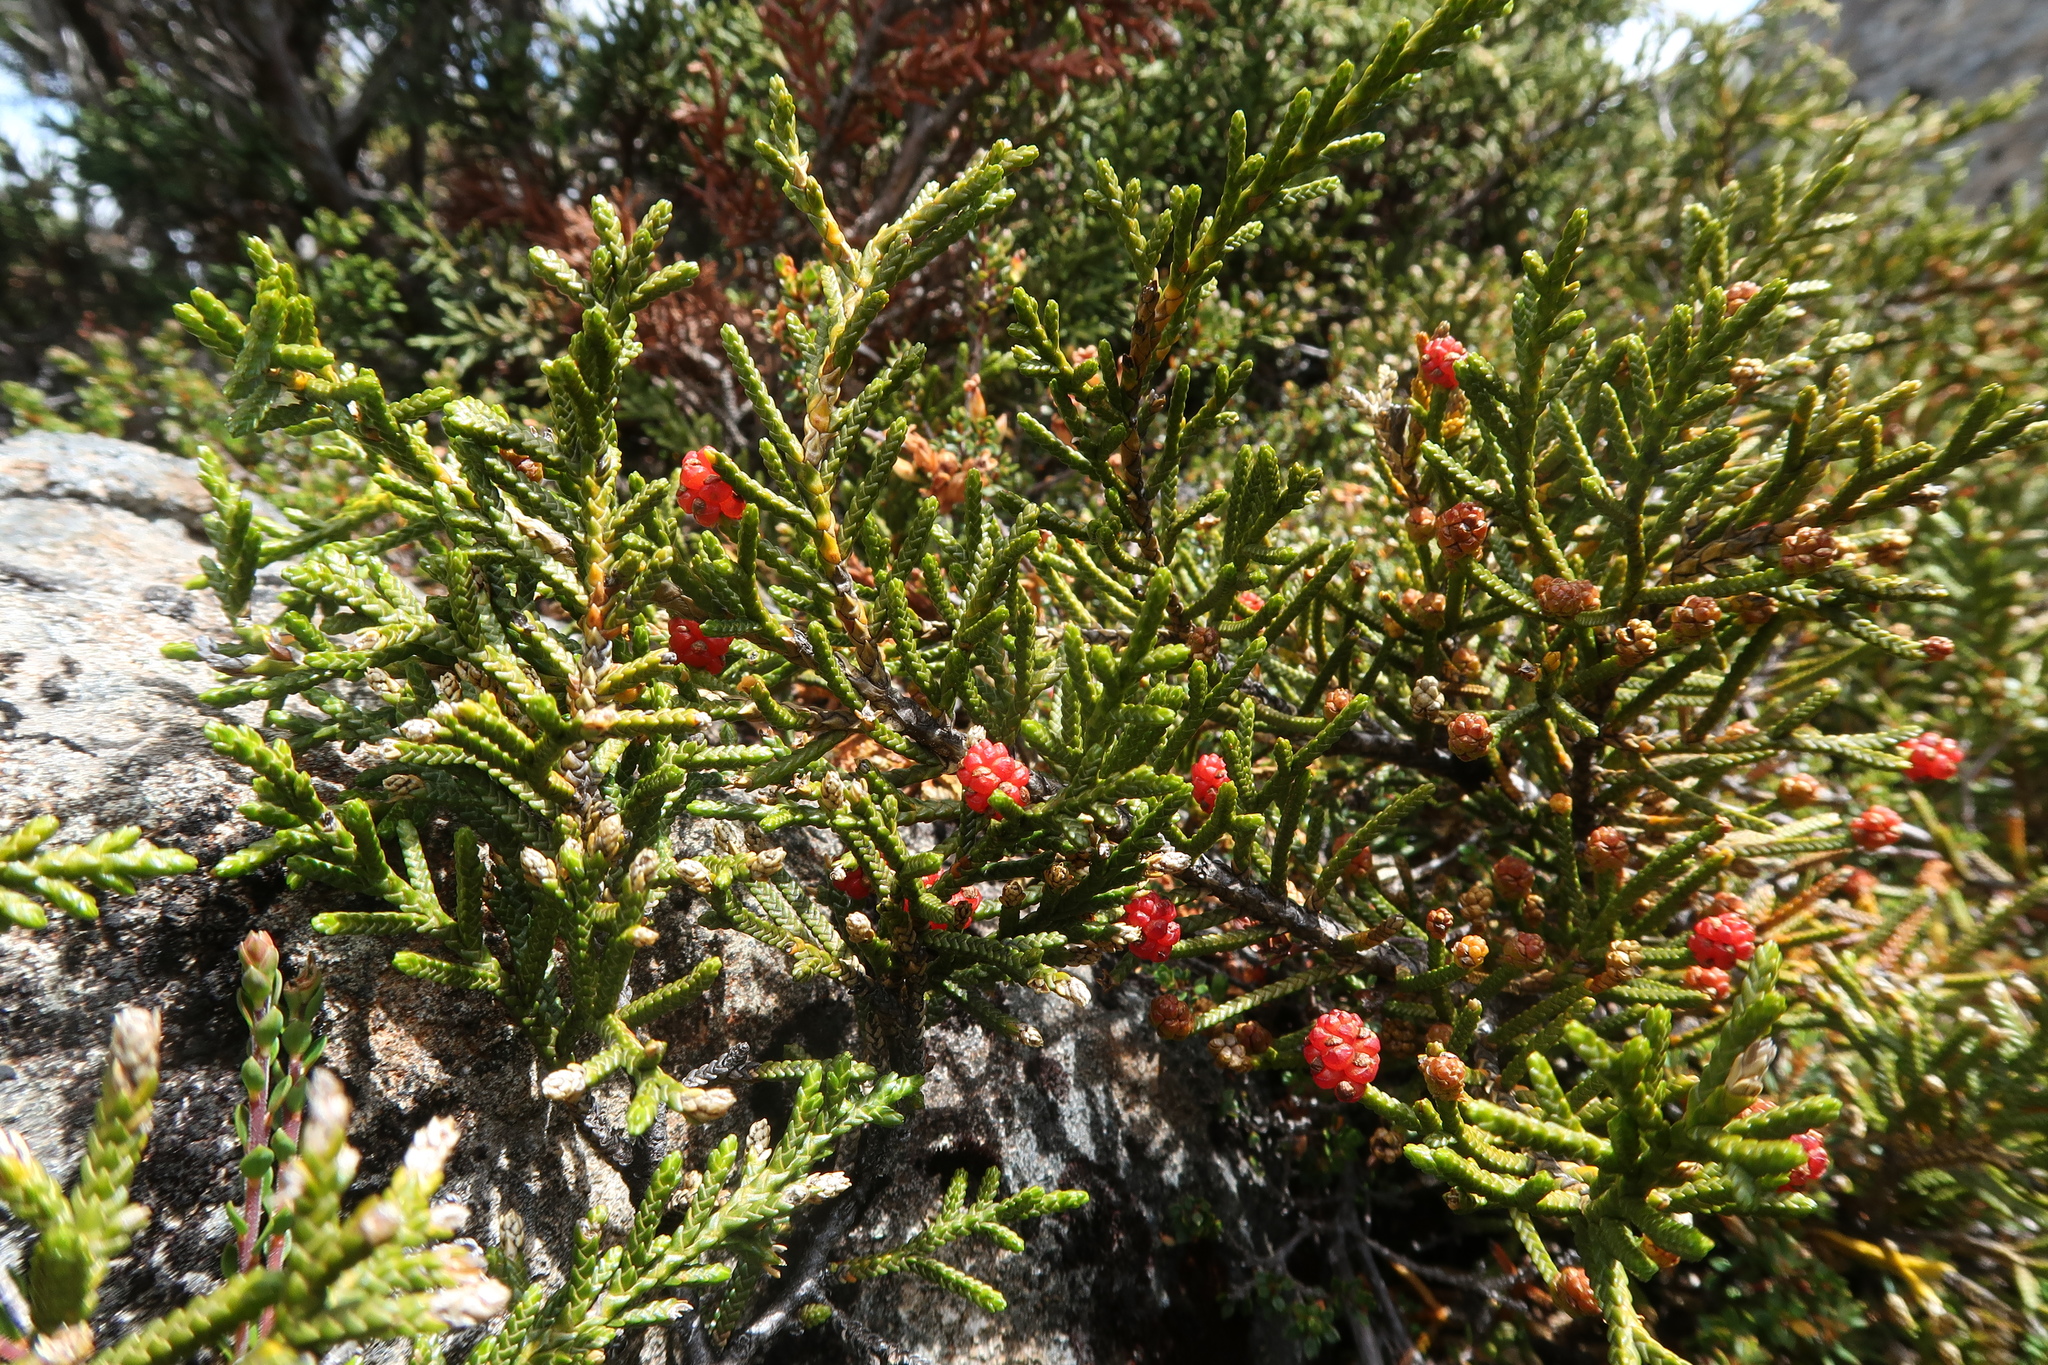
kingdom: Plantae
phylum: Tracheophyta
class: Pinopsida
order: Pinales
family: Podocarpaceae
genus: Microcachrys
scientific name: Microcachrys tetragona
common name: Creeping pine
